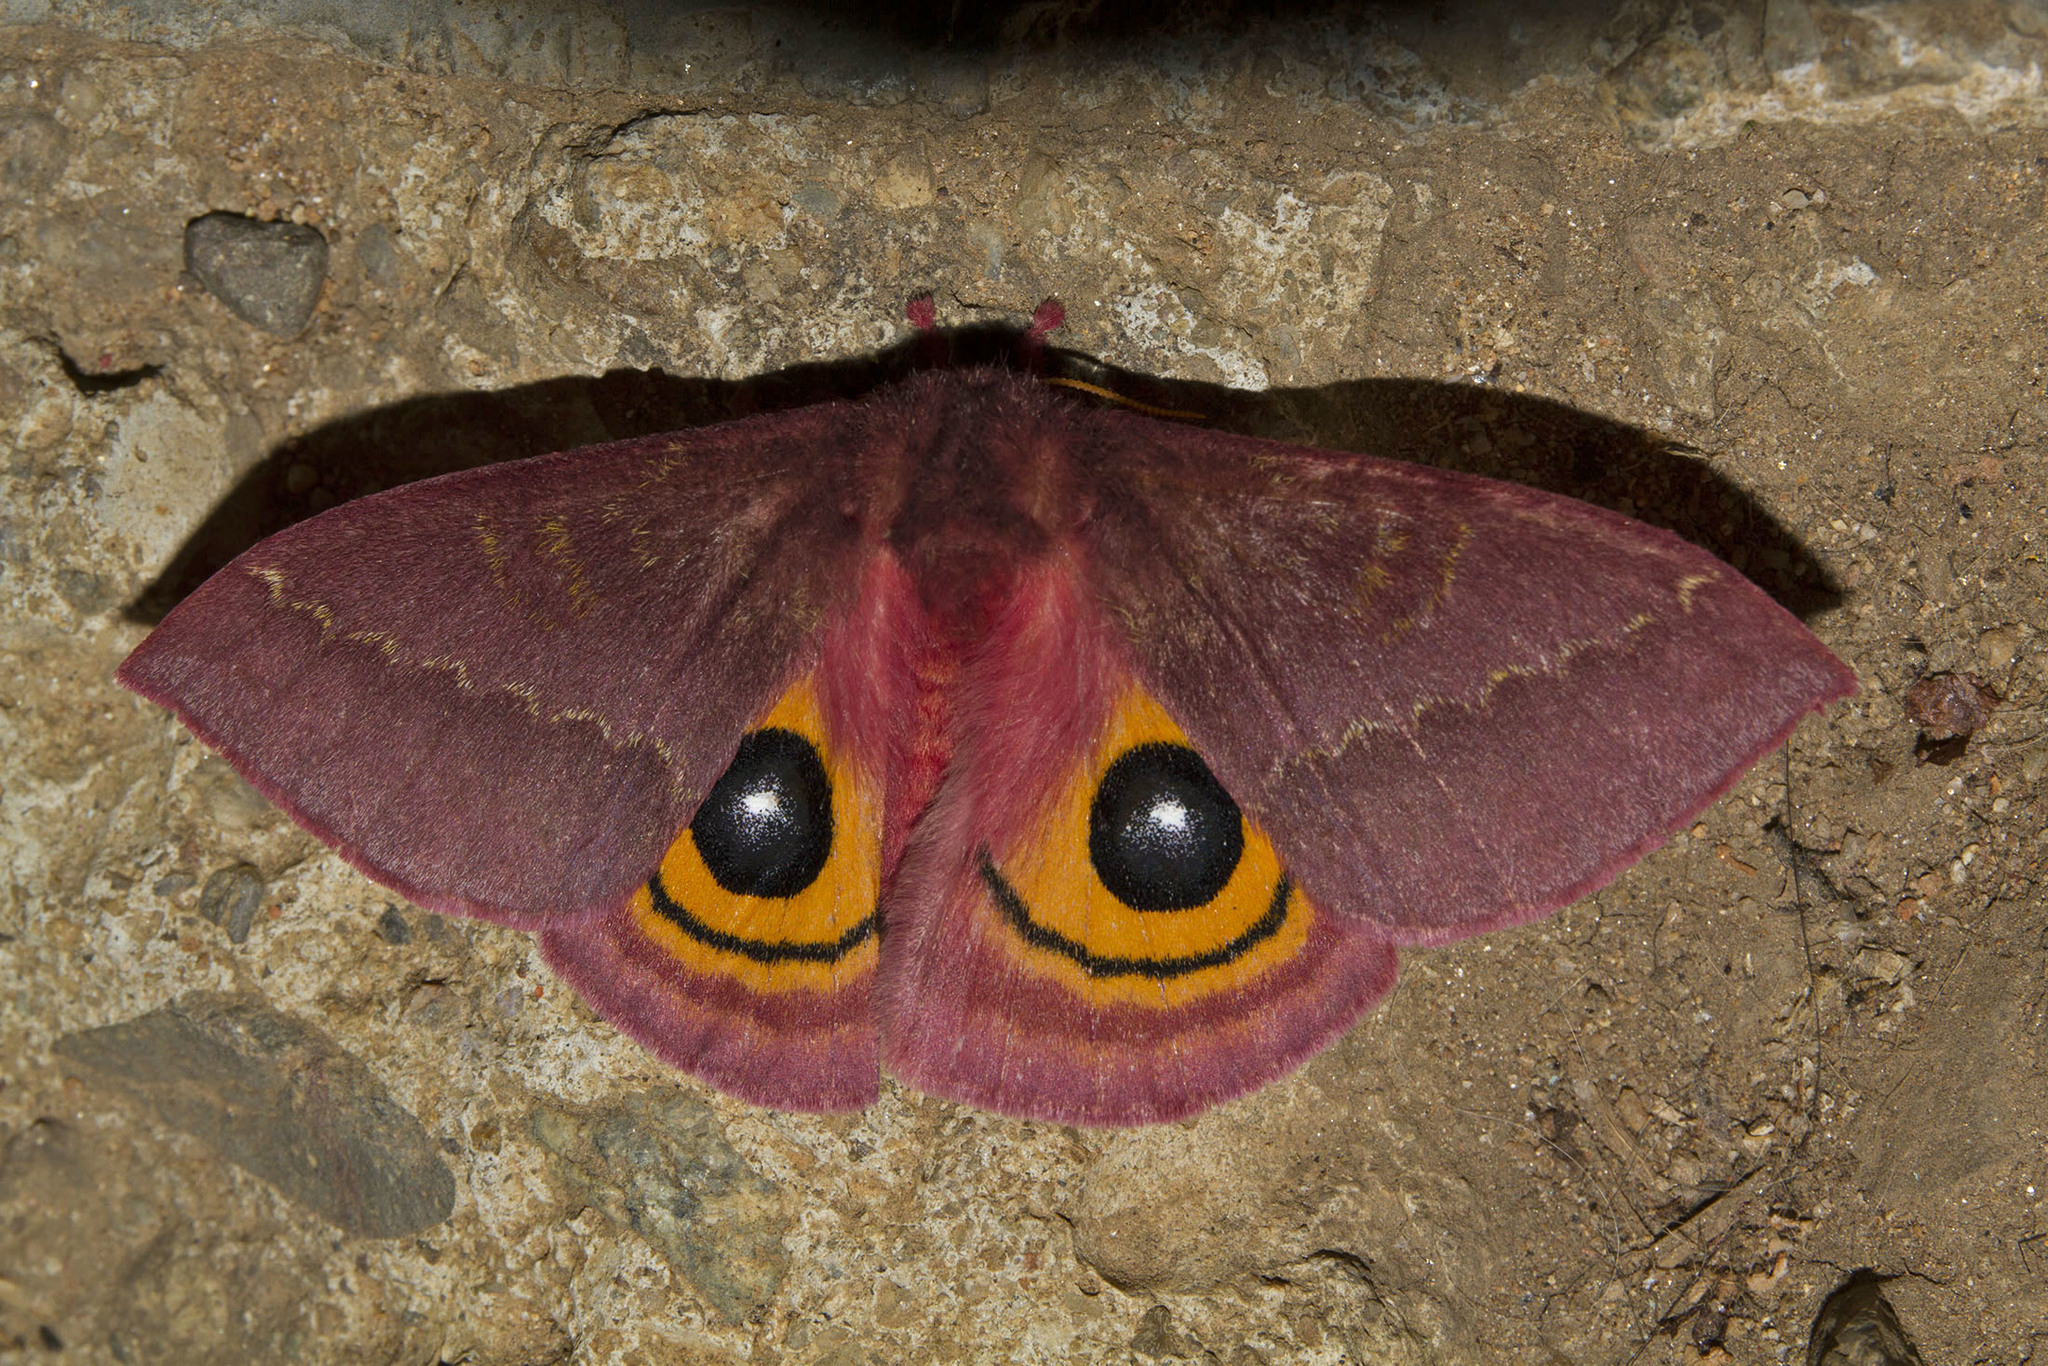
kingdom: Animalia
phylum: Arthropoda
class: Insecta
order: Lepidoptera
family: Saturniidae
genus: Automeris
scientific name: Automeris colenon
